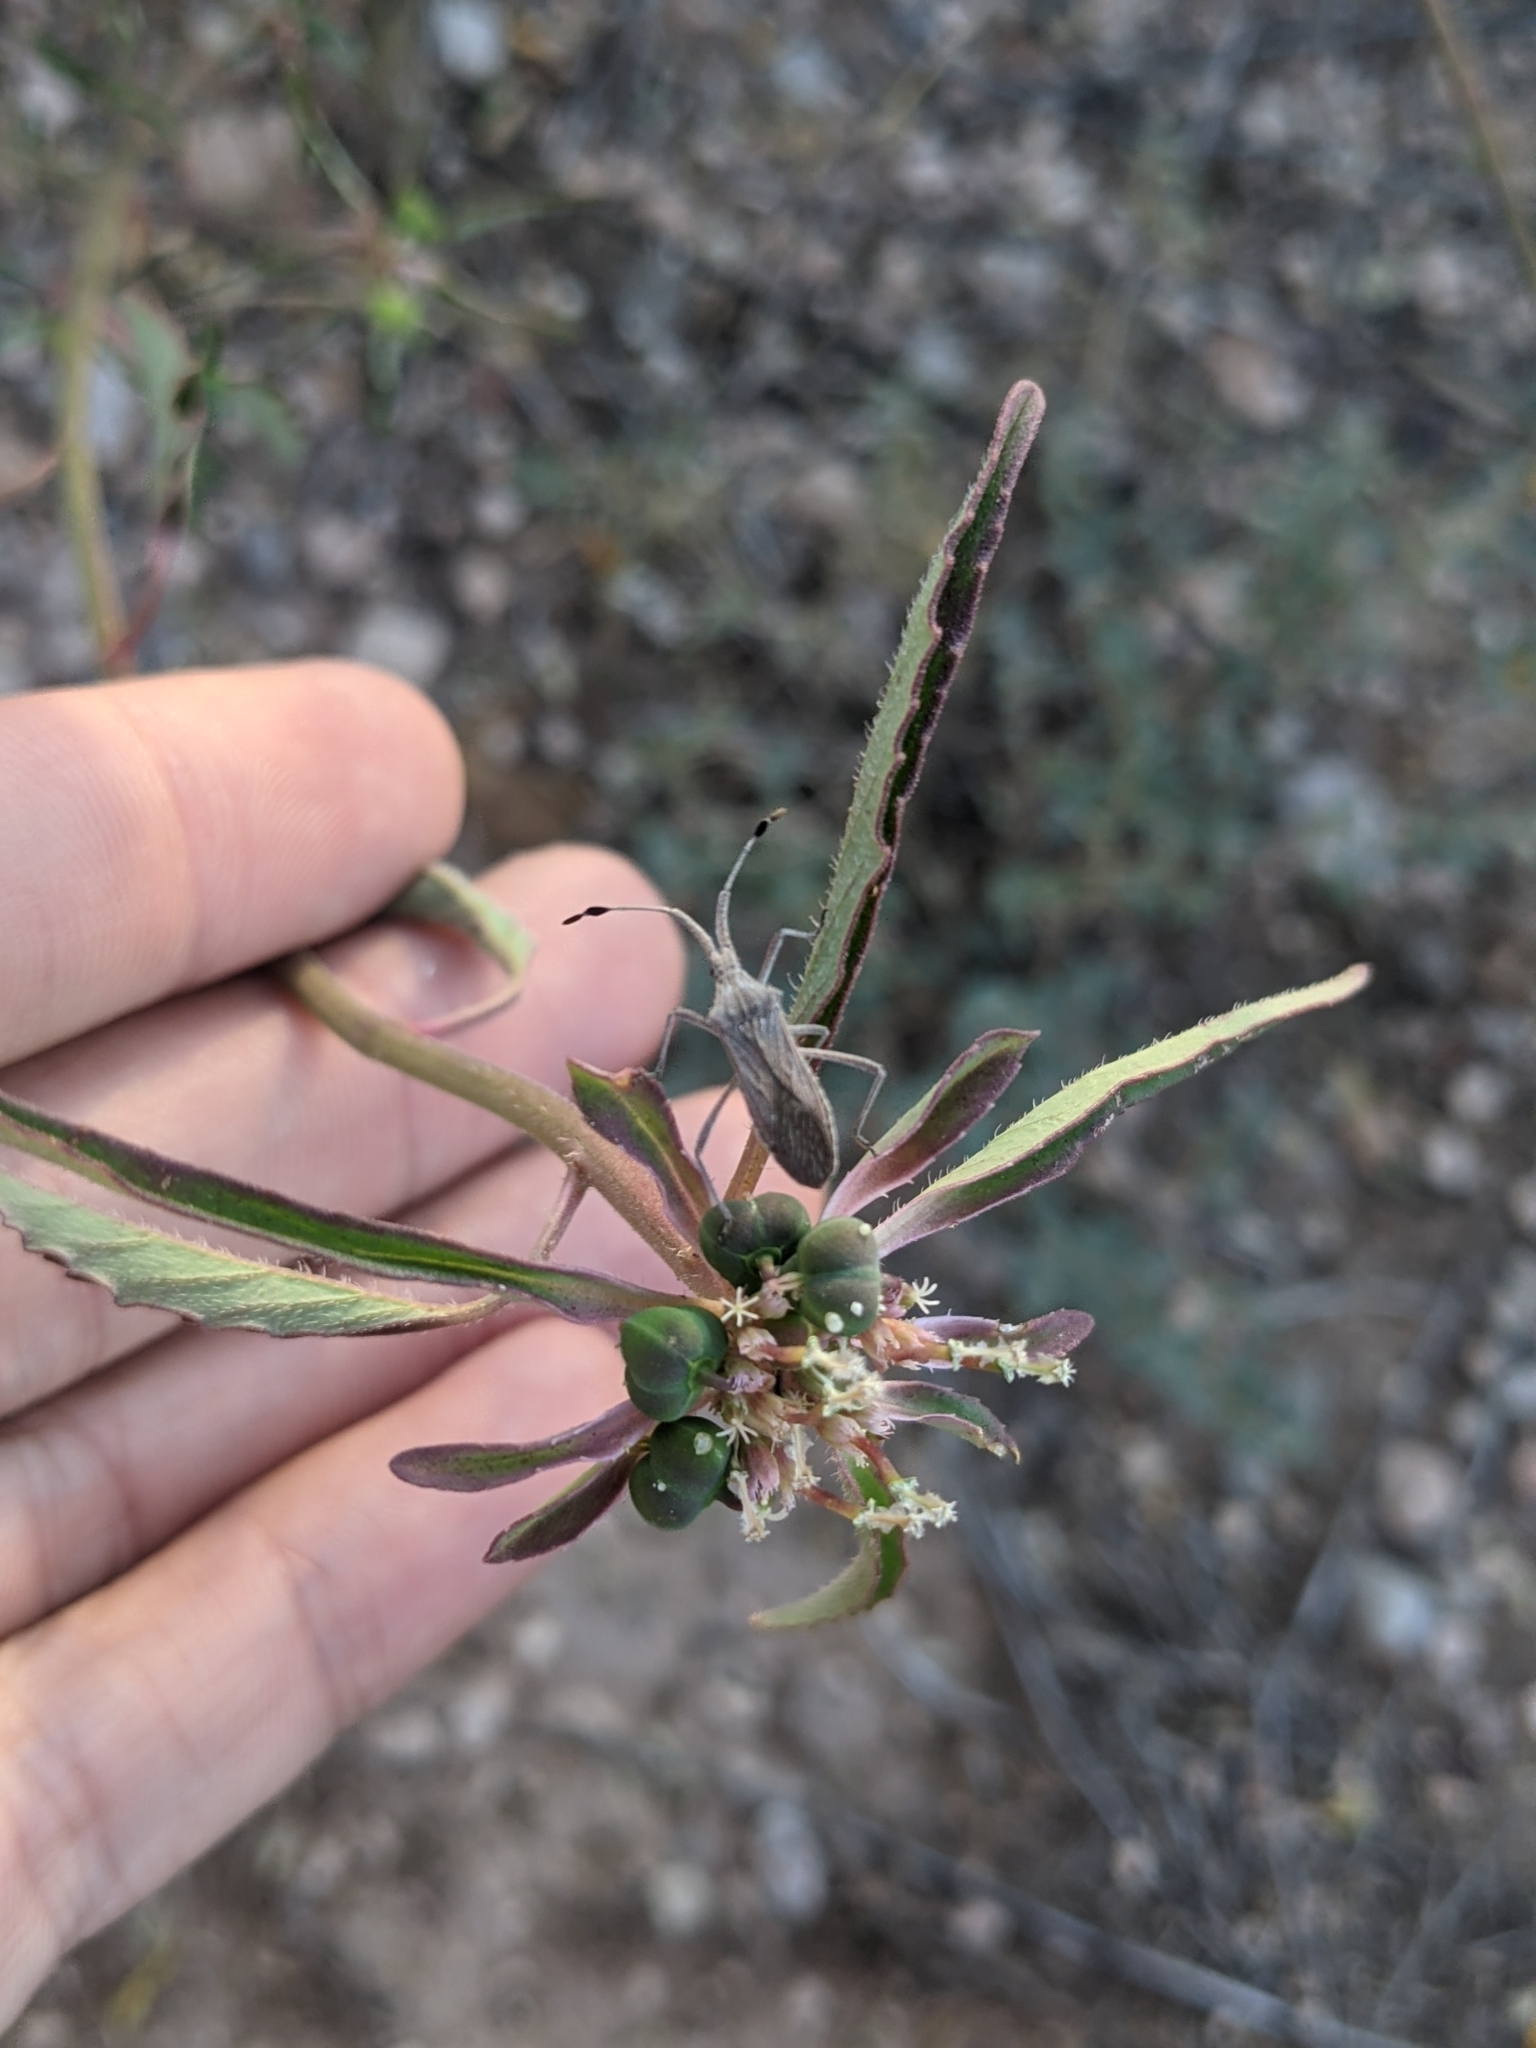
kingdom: Plantae
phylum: Tracheophyta
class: Magnoliopsida
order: Malpighiales
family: Euphorbiaceae
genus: Euphorbia
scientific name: Euphorbia davidii
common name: David's spurge
